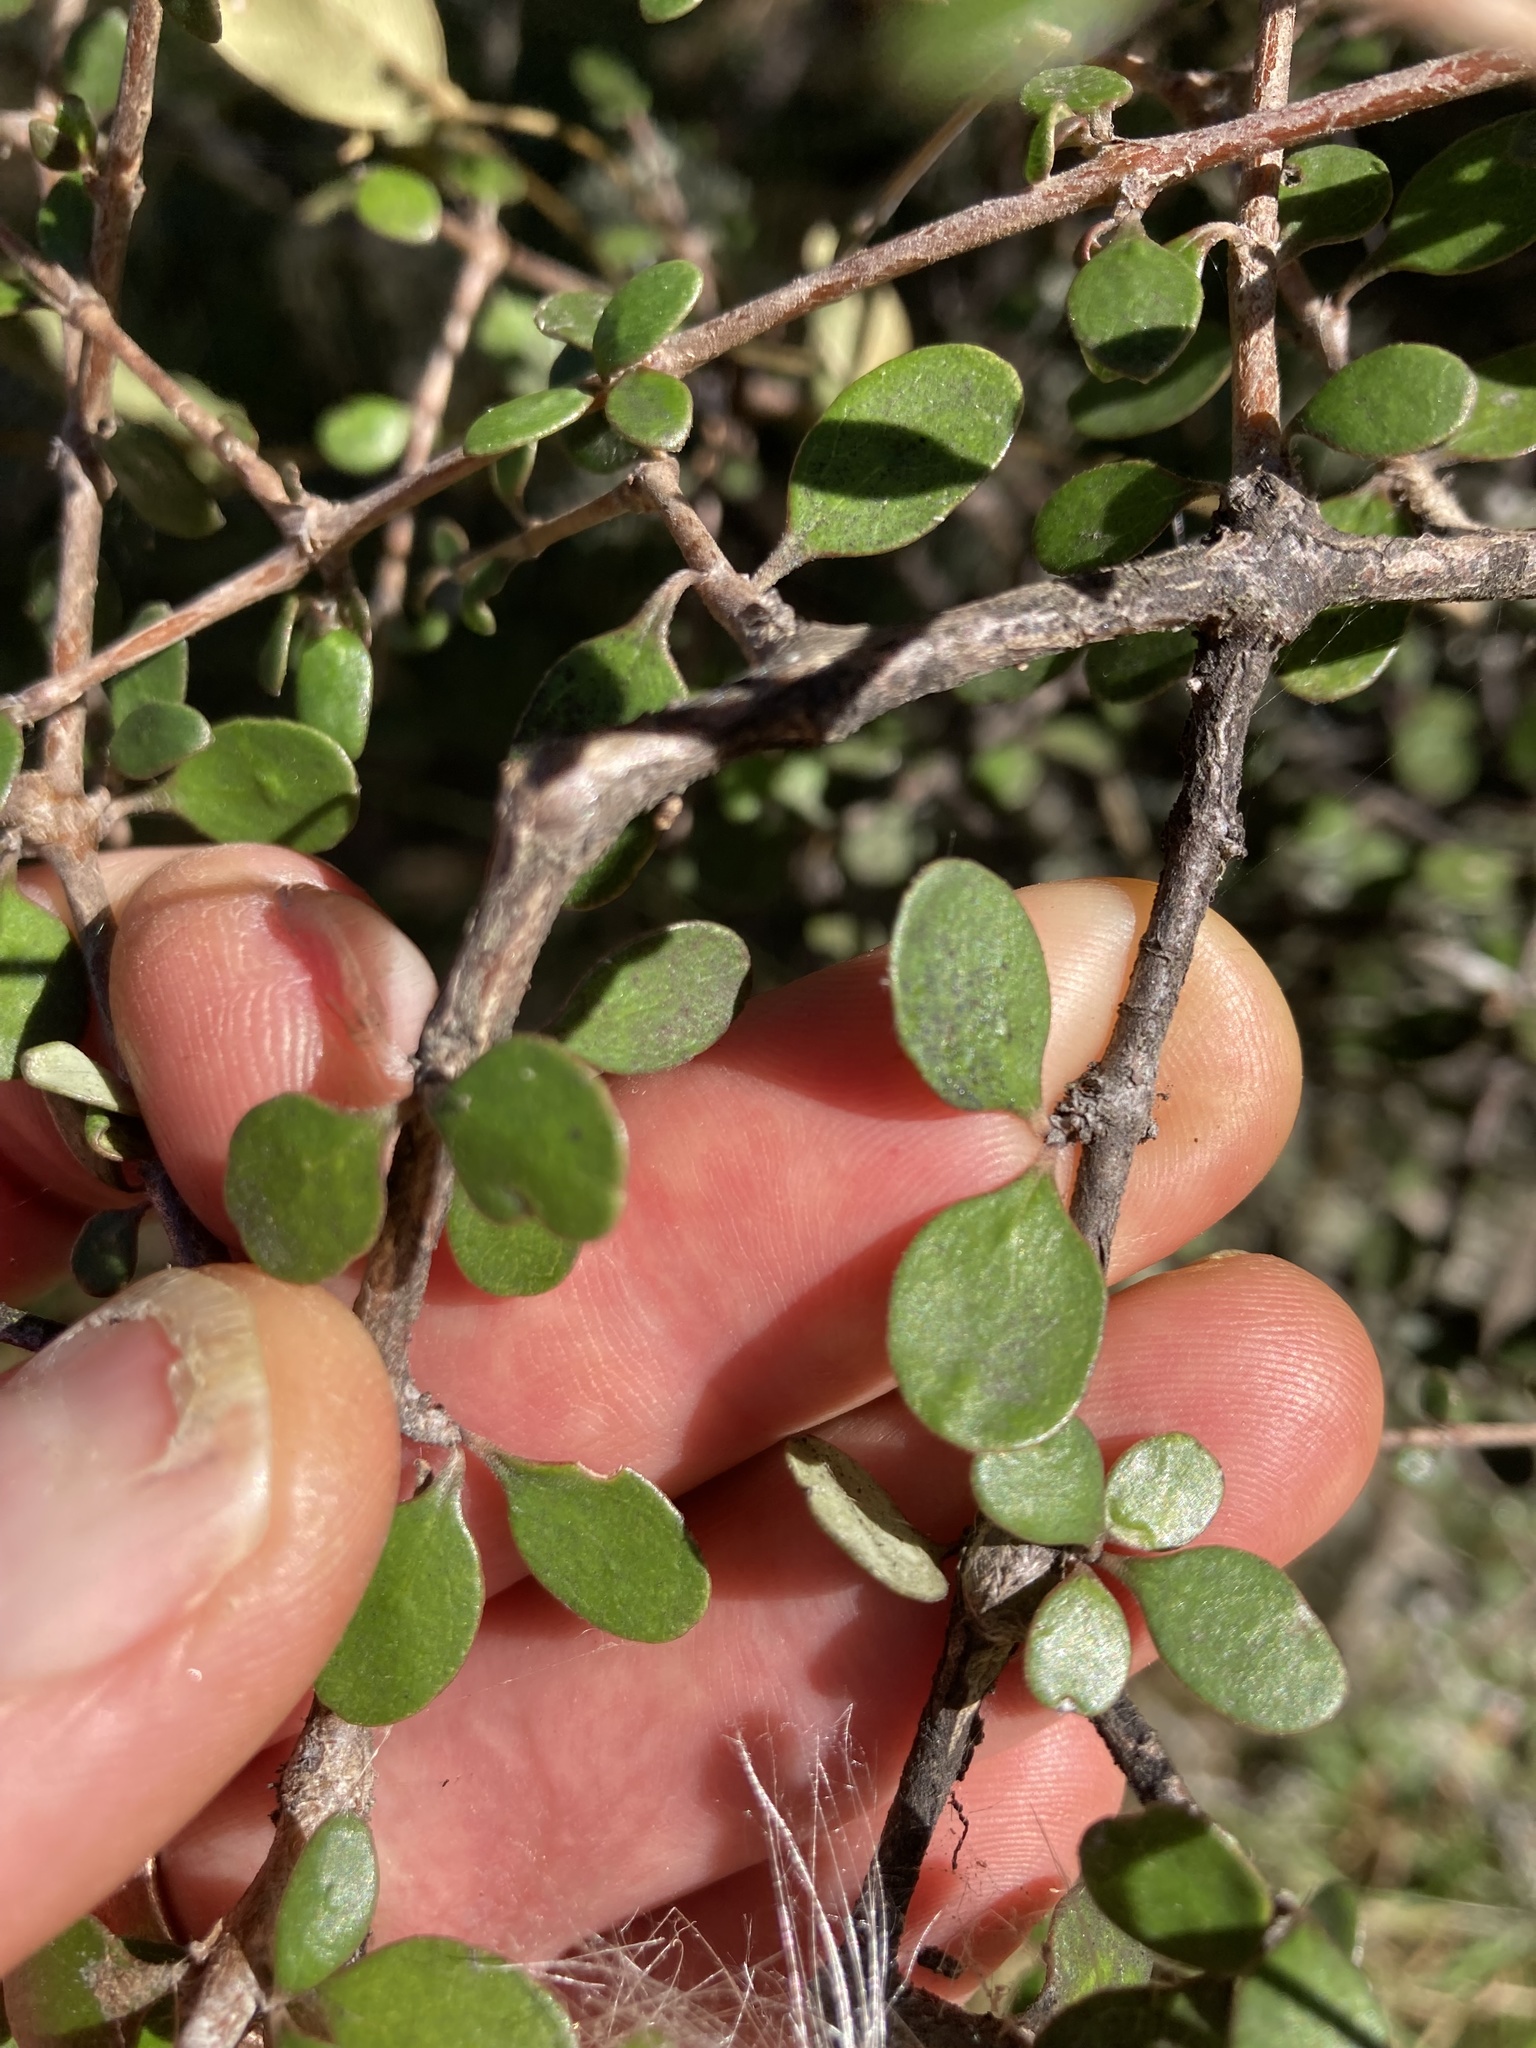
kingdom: Plantae
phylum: Tracheophyta
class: Magnoliopsida
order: Gentianales
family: Rubiaceae
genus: Coprosma
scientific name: Coprosma crassifolia
